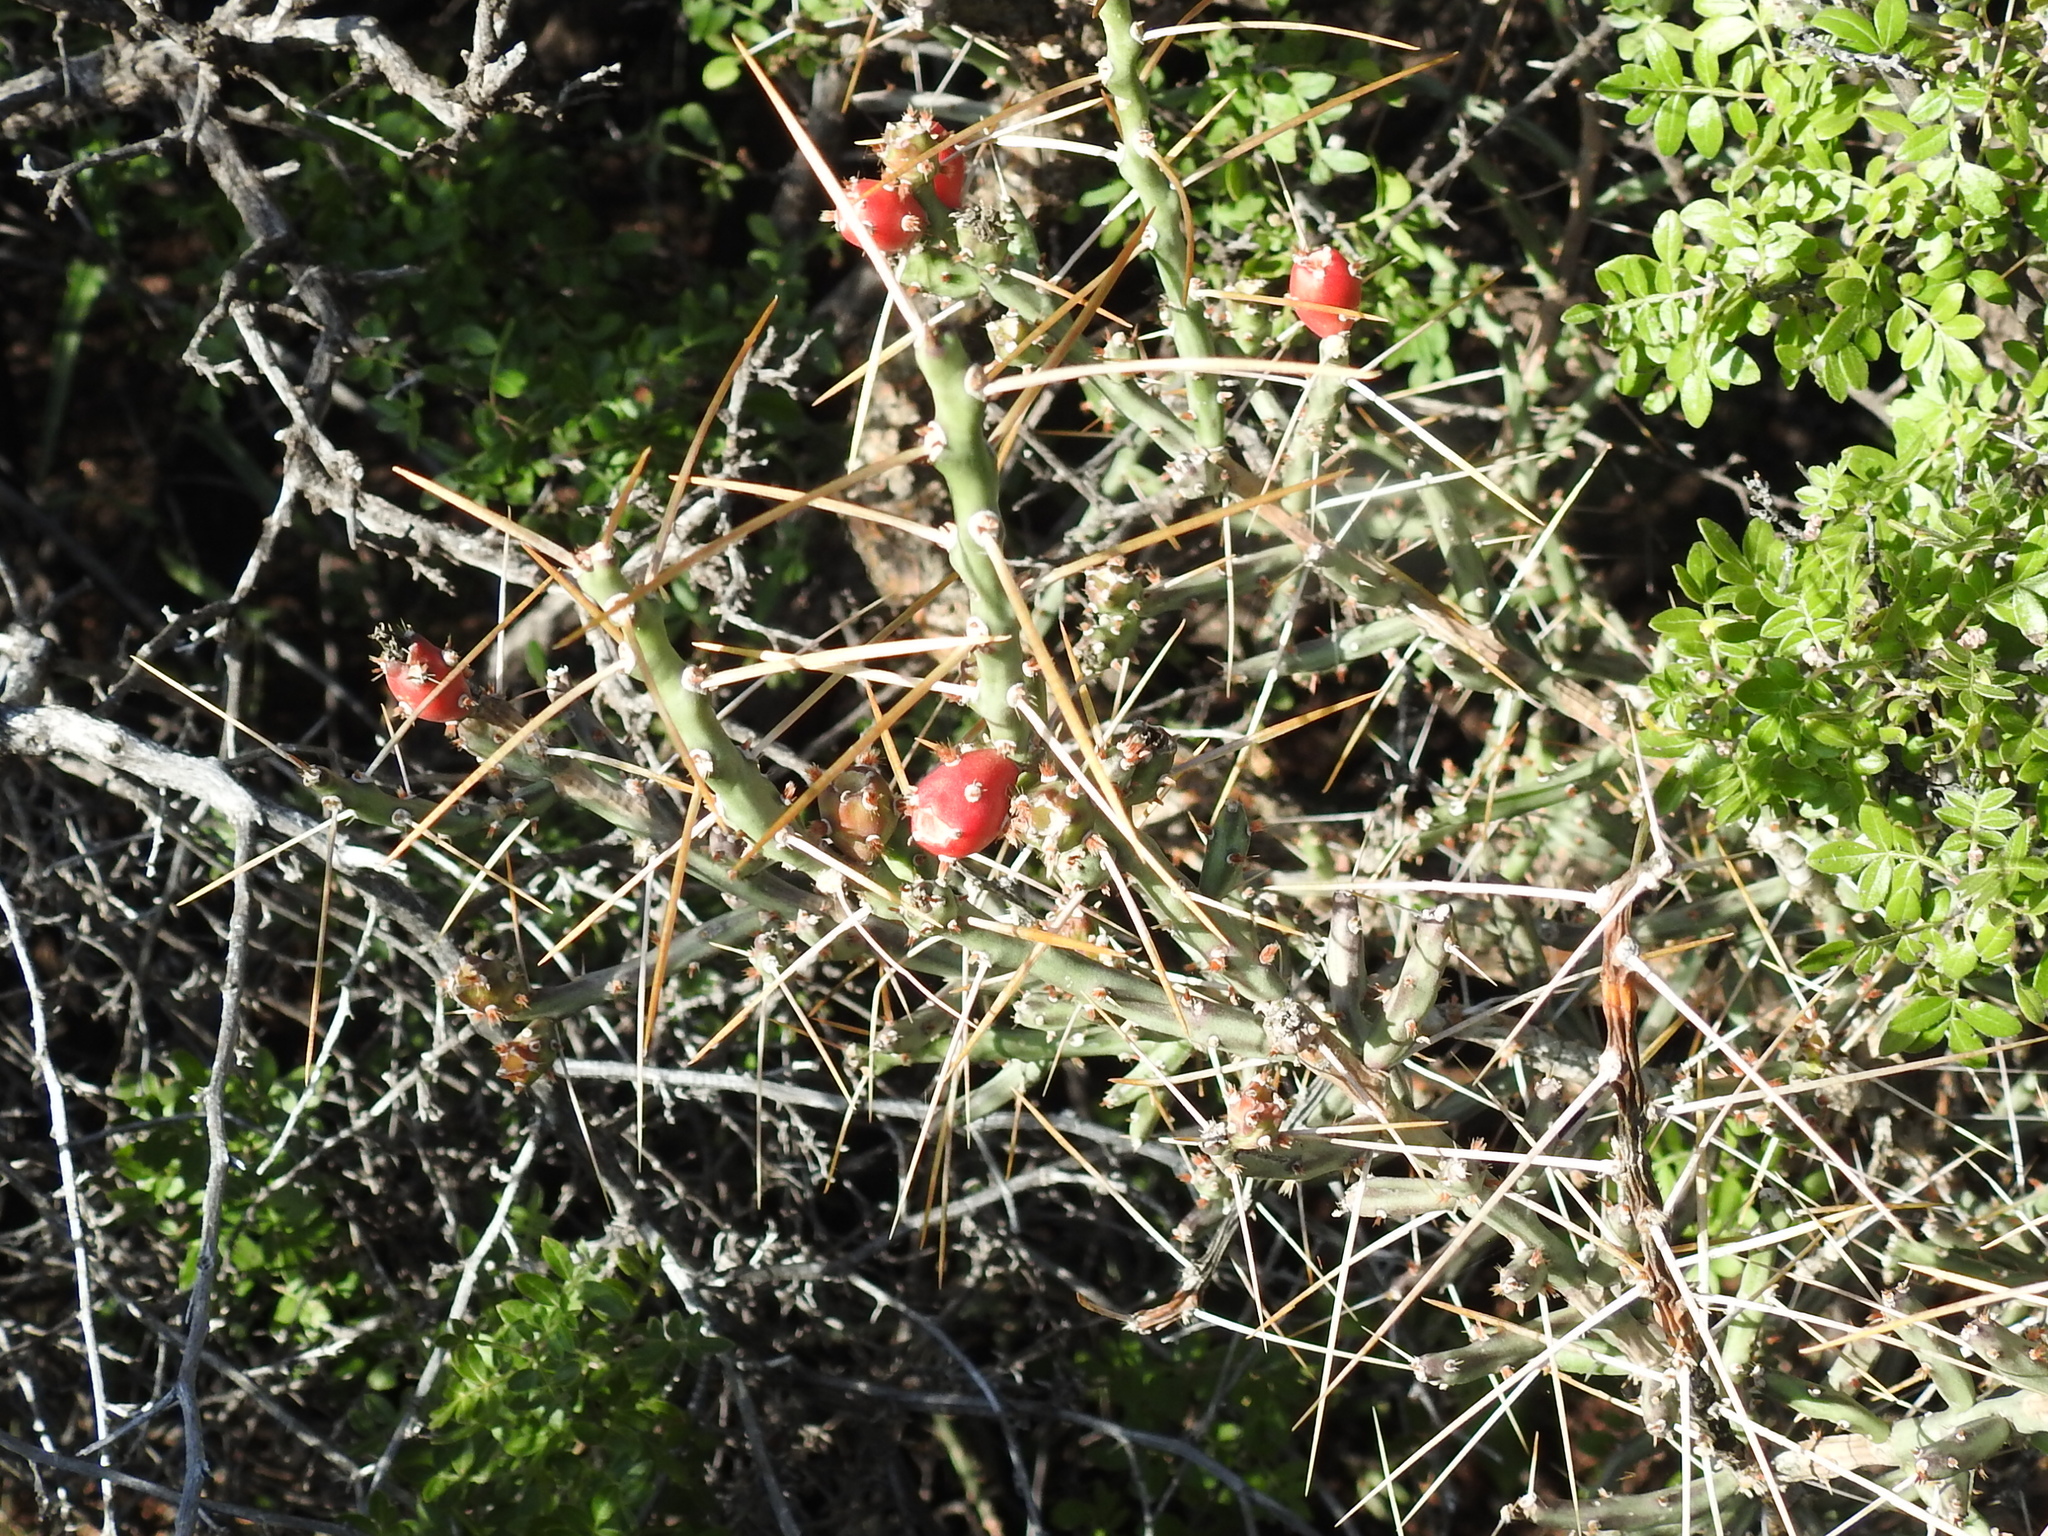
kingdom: Plantae
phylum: Tracheophyta
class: Magnoliopsida
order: Caryophyllales
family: Cactaceae
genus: Cylindropuntia
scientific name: Cylindropuntia leptocaulis
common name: Christmas cactus
